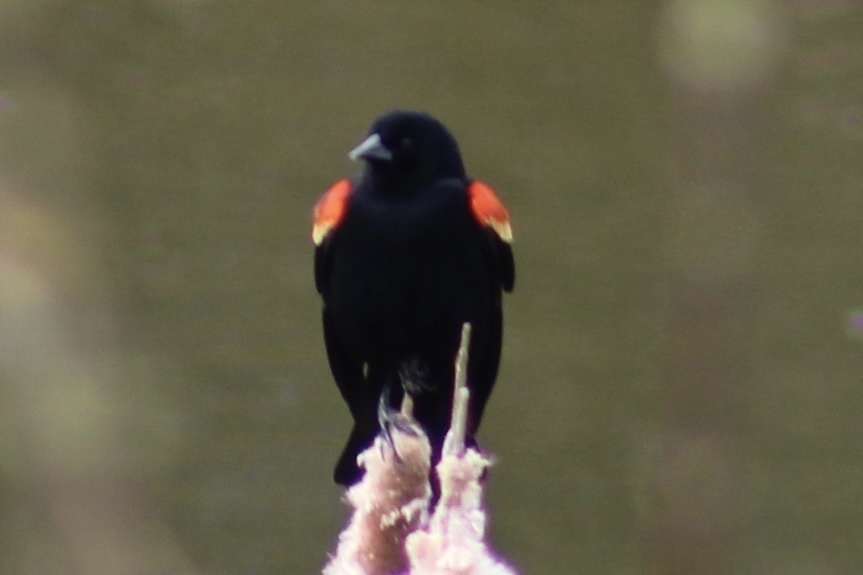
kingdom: Animalia
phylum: Chordata
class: Aves
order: Passeriformes
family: Icteridae
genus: Agelaius
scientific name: Agelaius phoeniceus
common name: Red-winged blackbird
